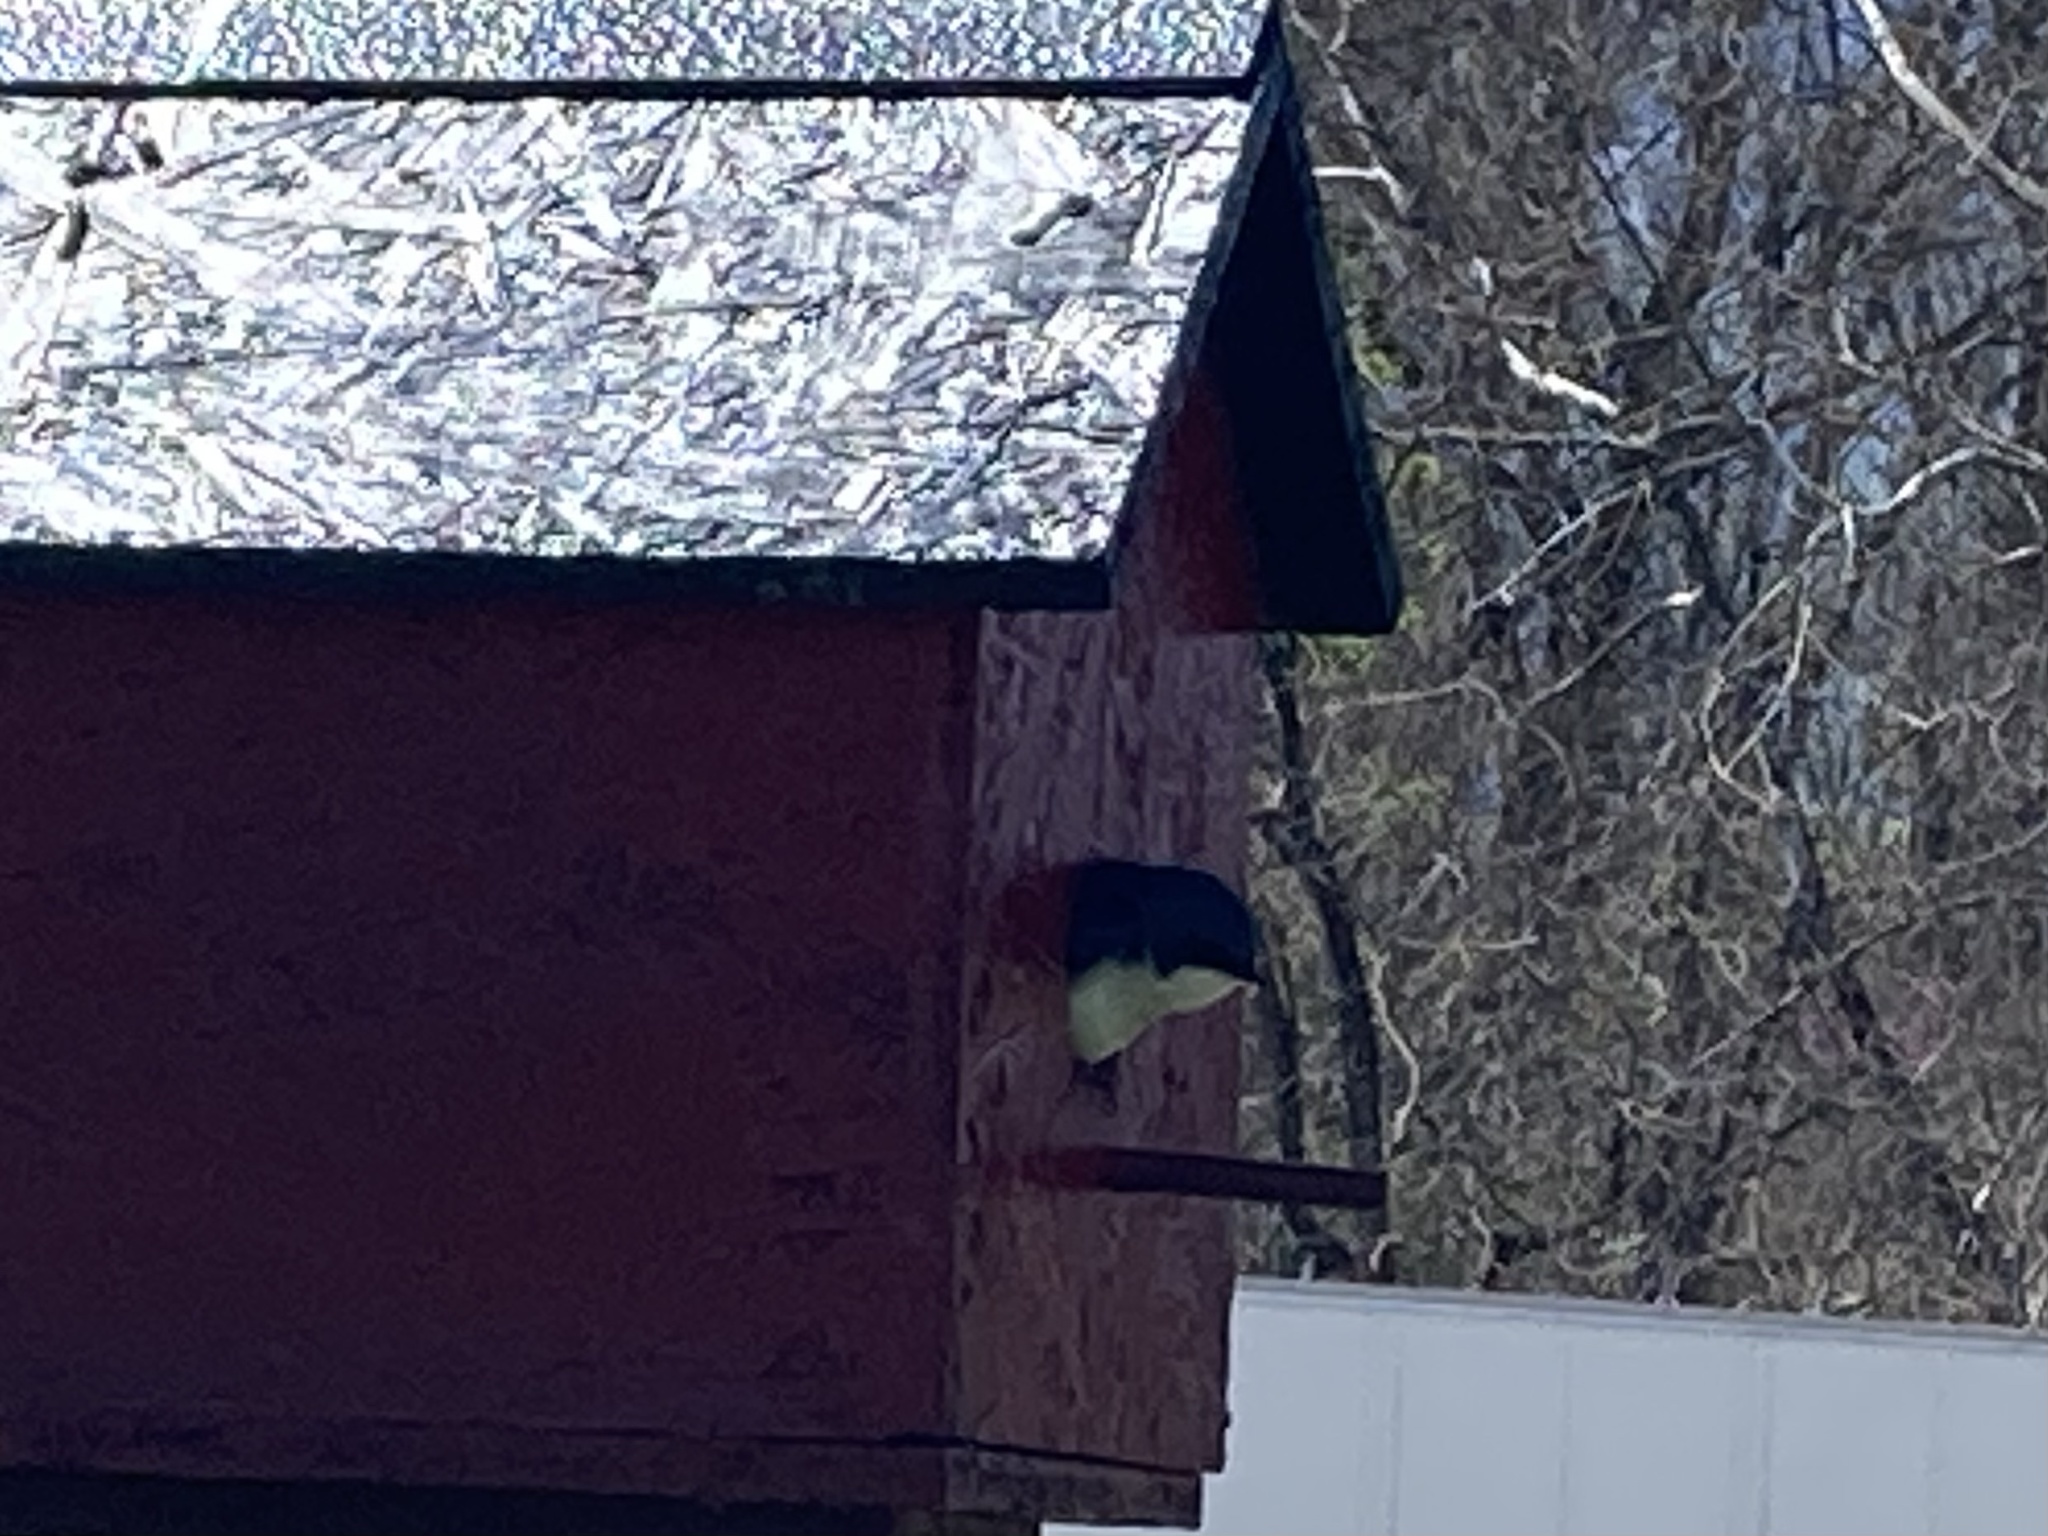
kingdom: Animalia
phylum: Chordata
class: Aves
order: Passeriformes
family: Hirundinidae
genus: Tachycineta
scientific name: Tachycineta bicolor
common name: Tree swallow
